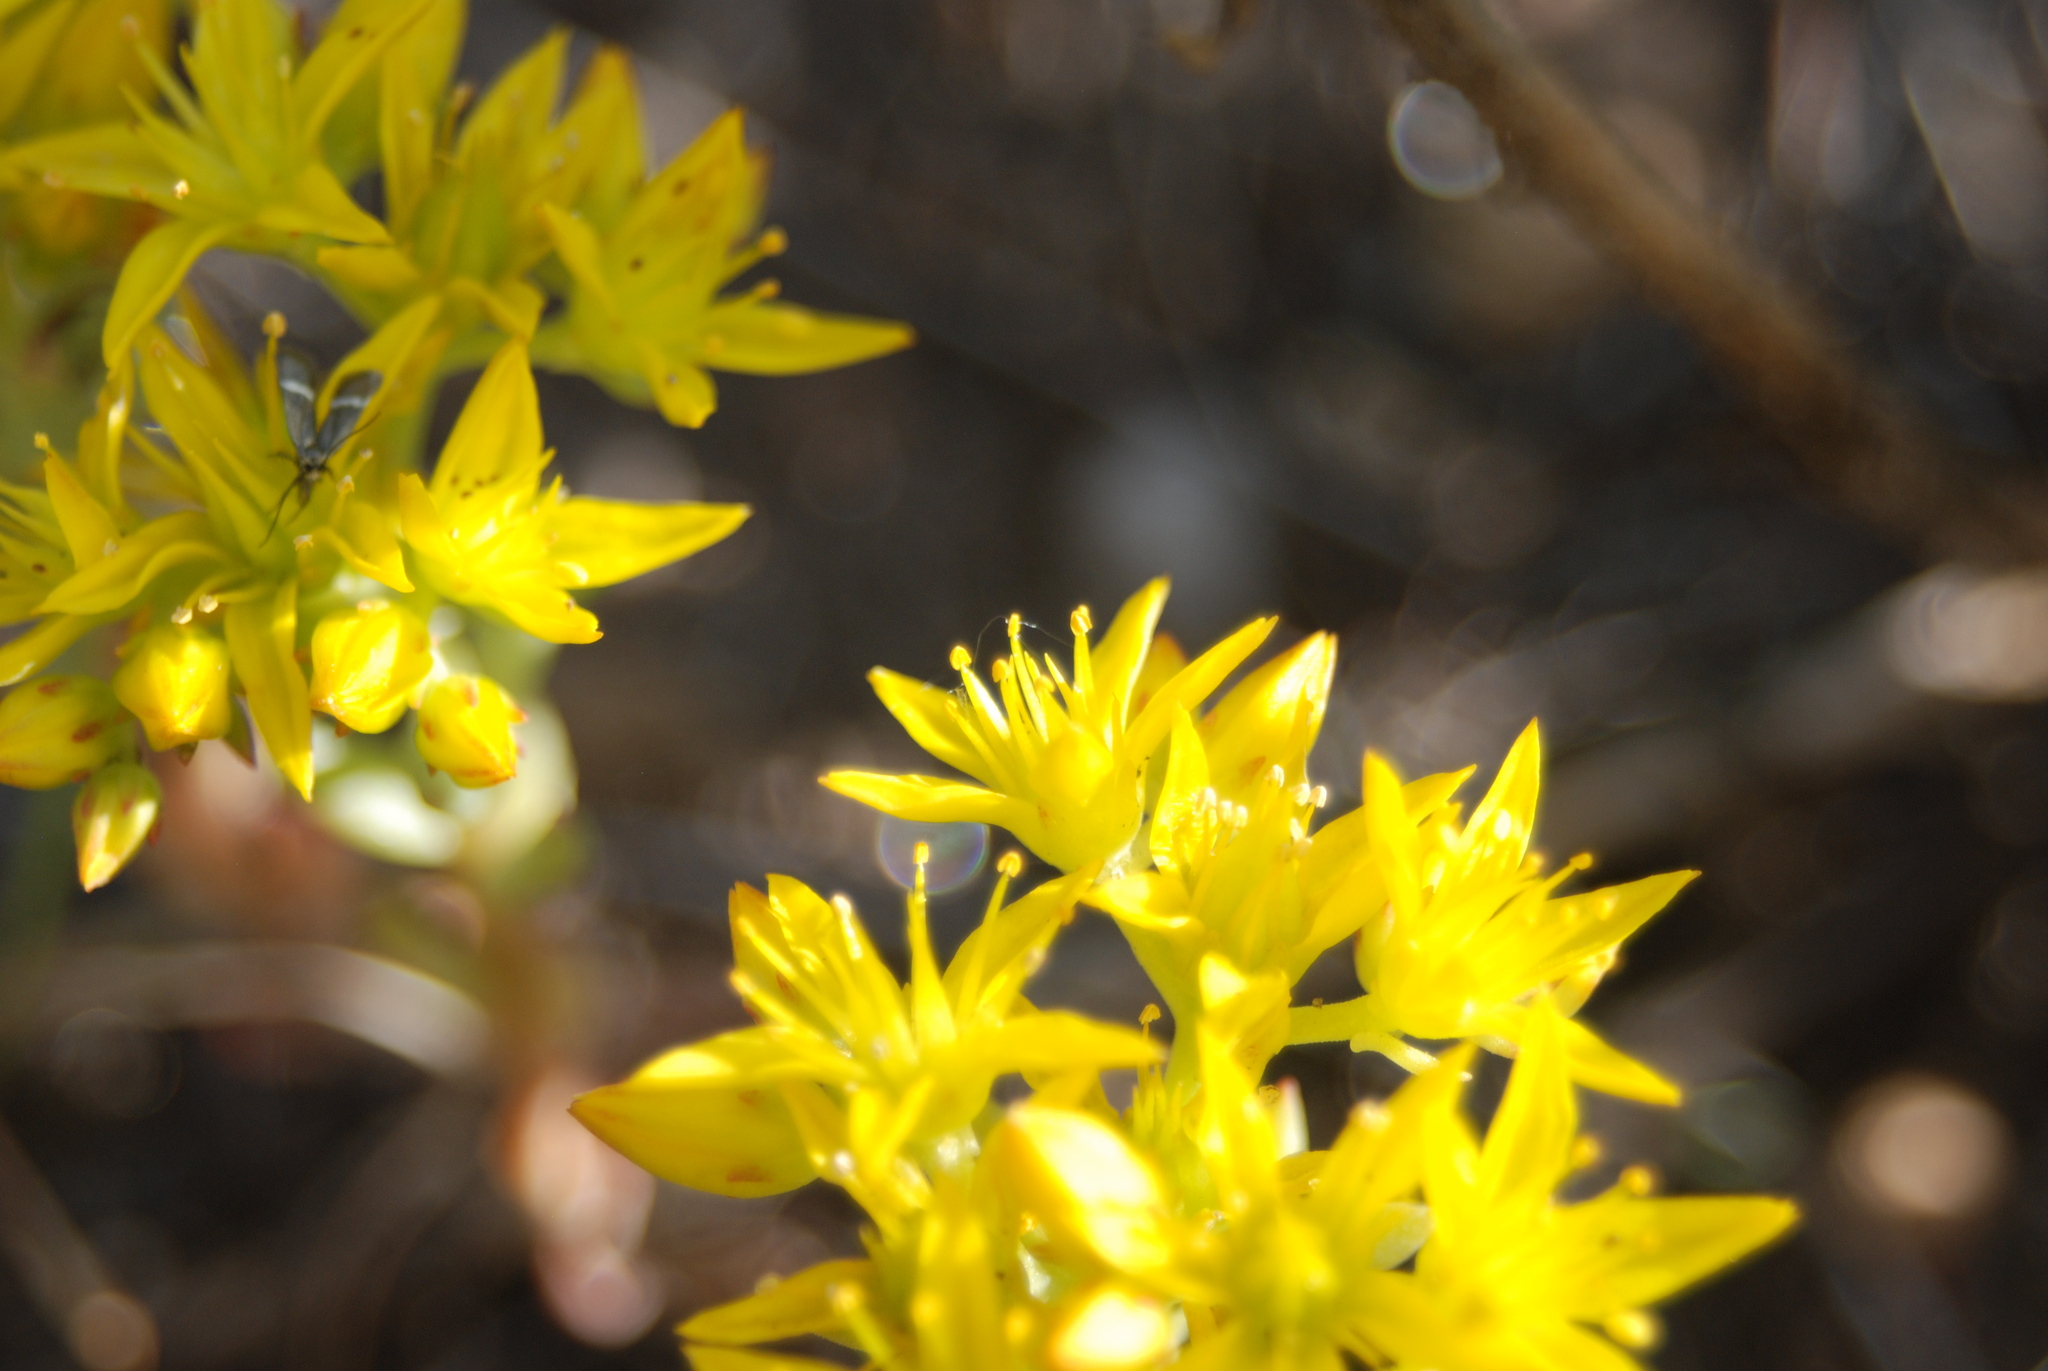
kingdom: Plantae
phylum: Tracheophyta
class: Magnoliopsida
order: Saxifragales
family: Crassulaceae
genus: Sedum
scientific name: Sedum lanceolatum
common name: Common stonecrop
